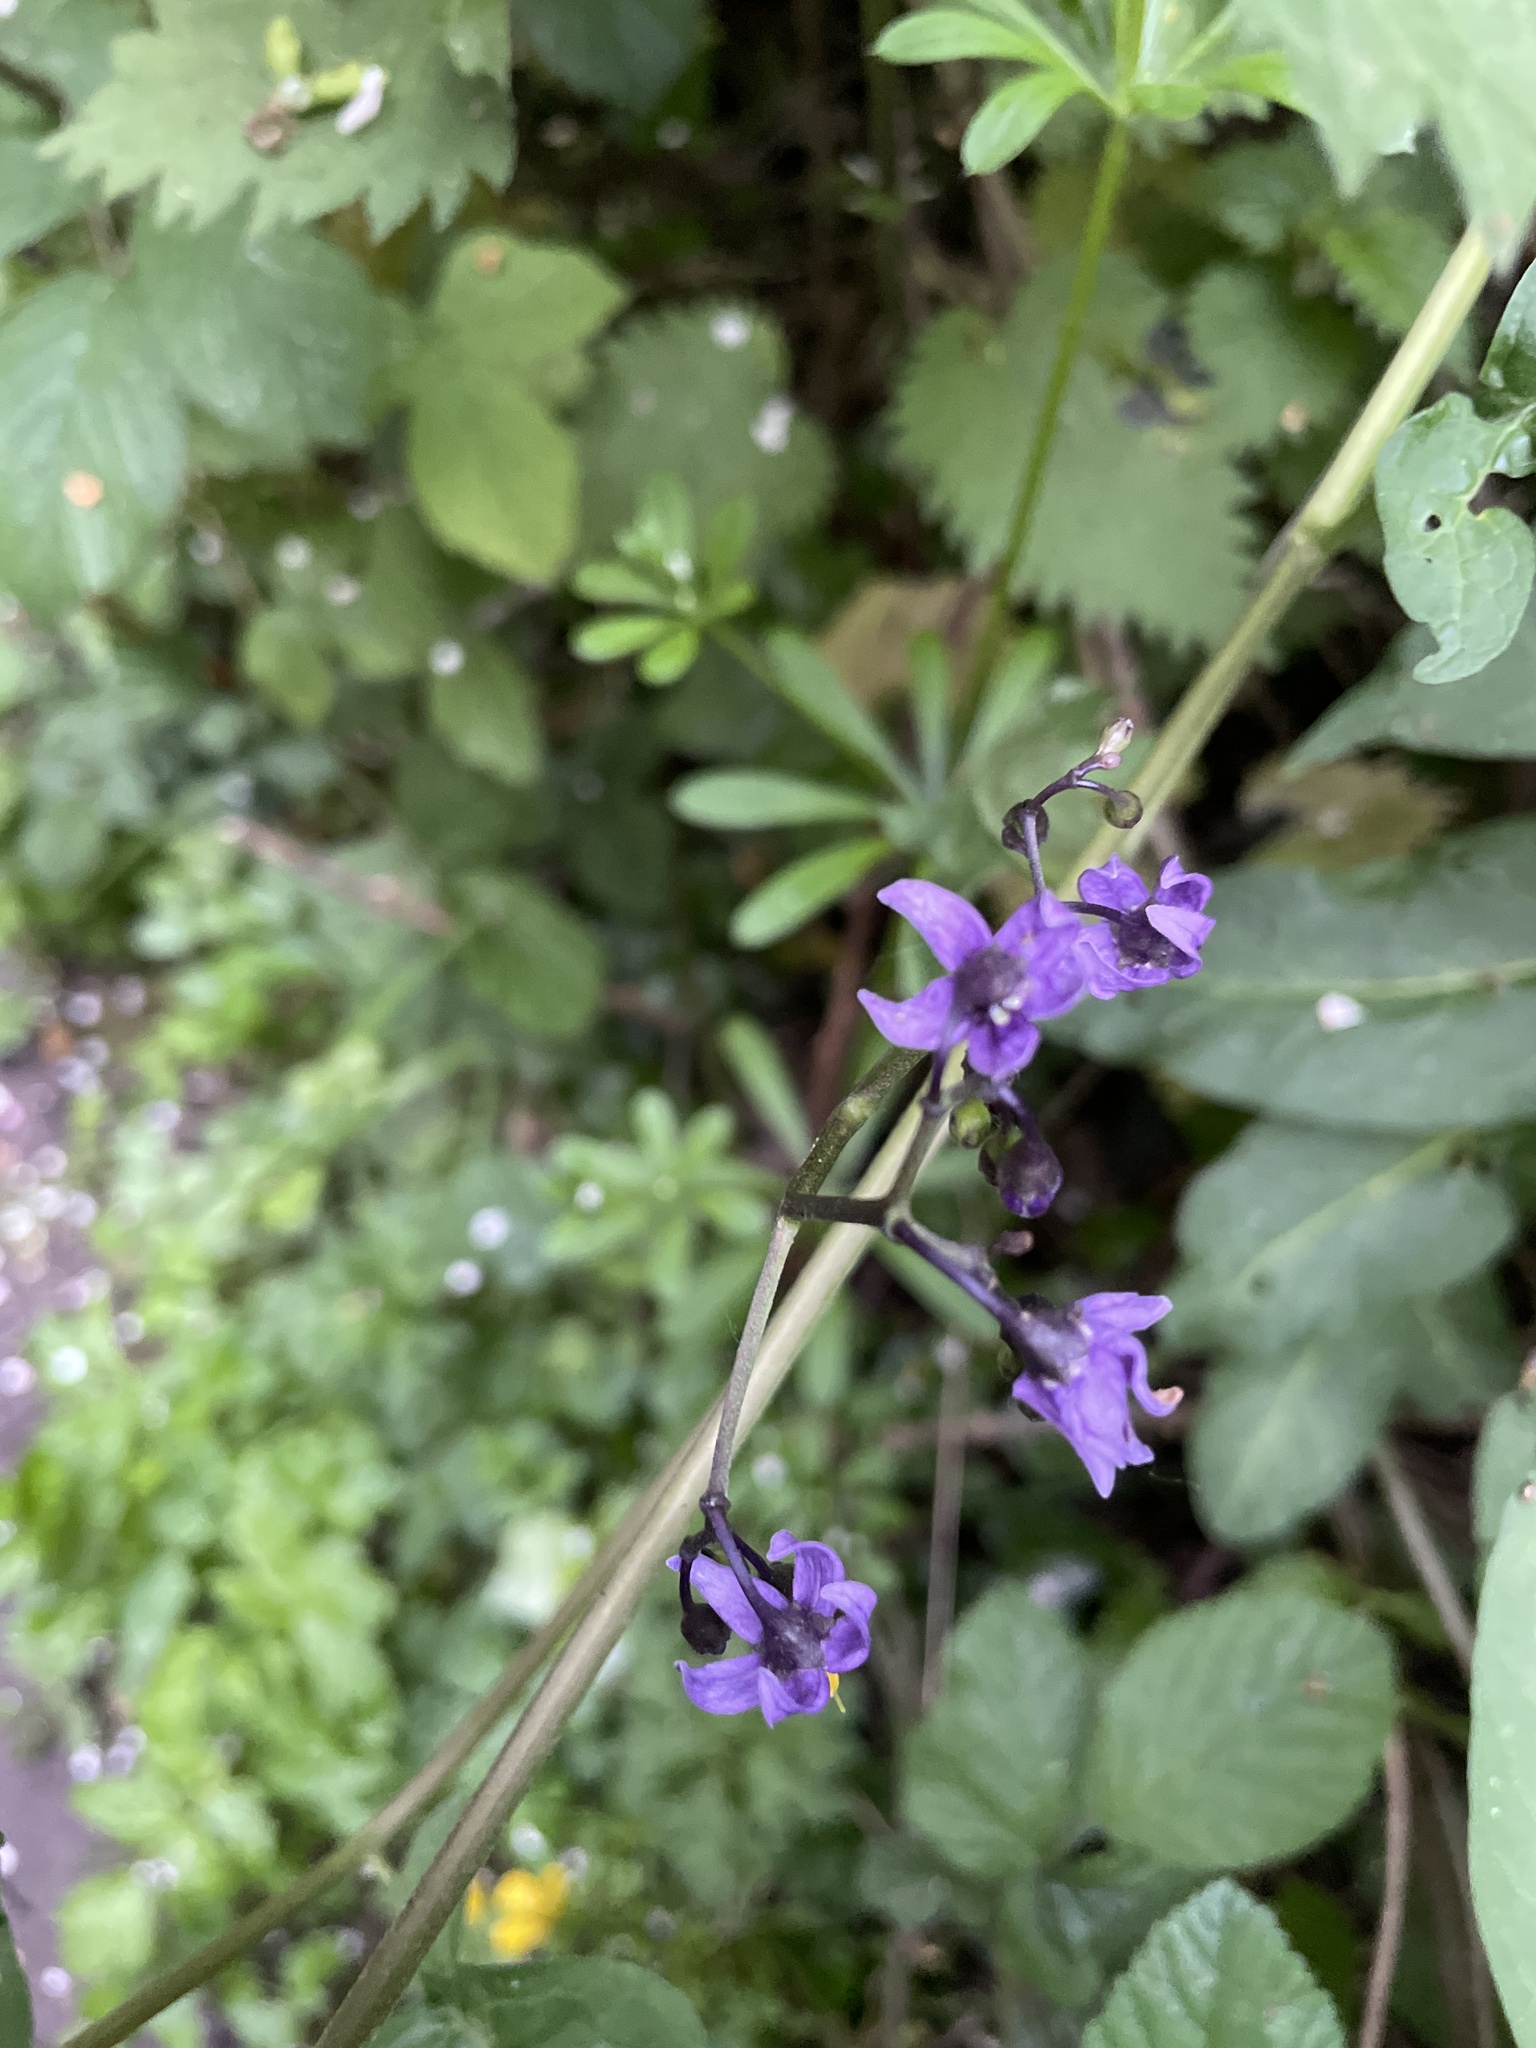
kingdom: Plantae
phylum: Tracheophyta
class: Magnoliopsida
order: Solanales
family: Solanaceae
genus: Solanum
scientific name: Solanum dulcamara
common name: Climbing nightshade
